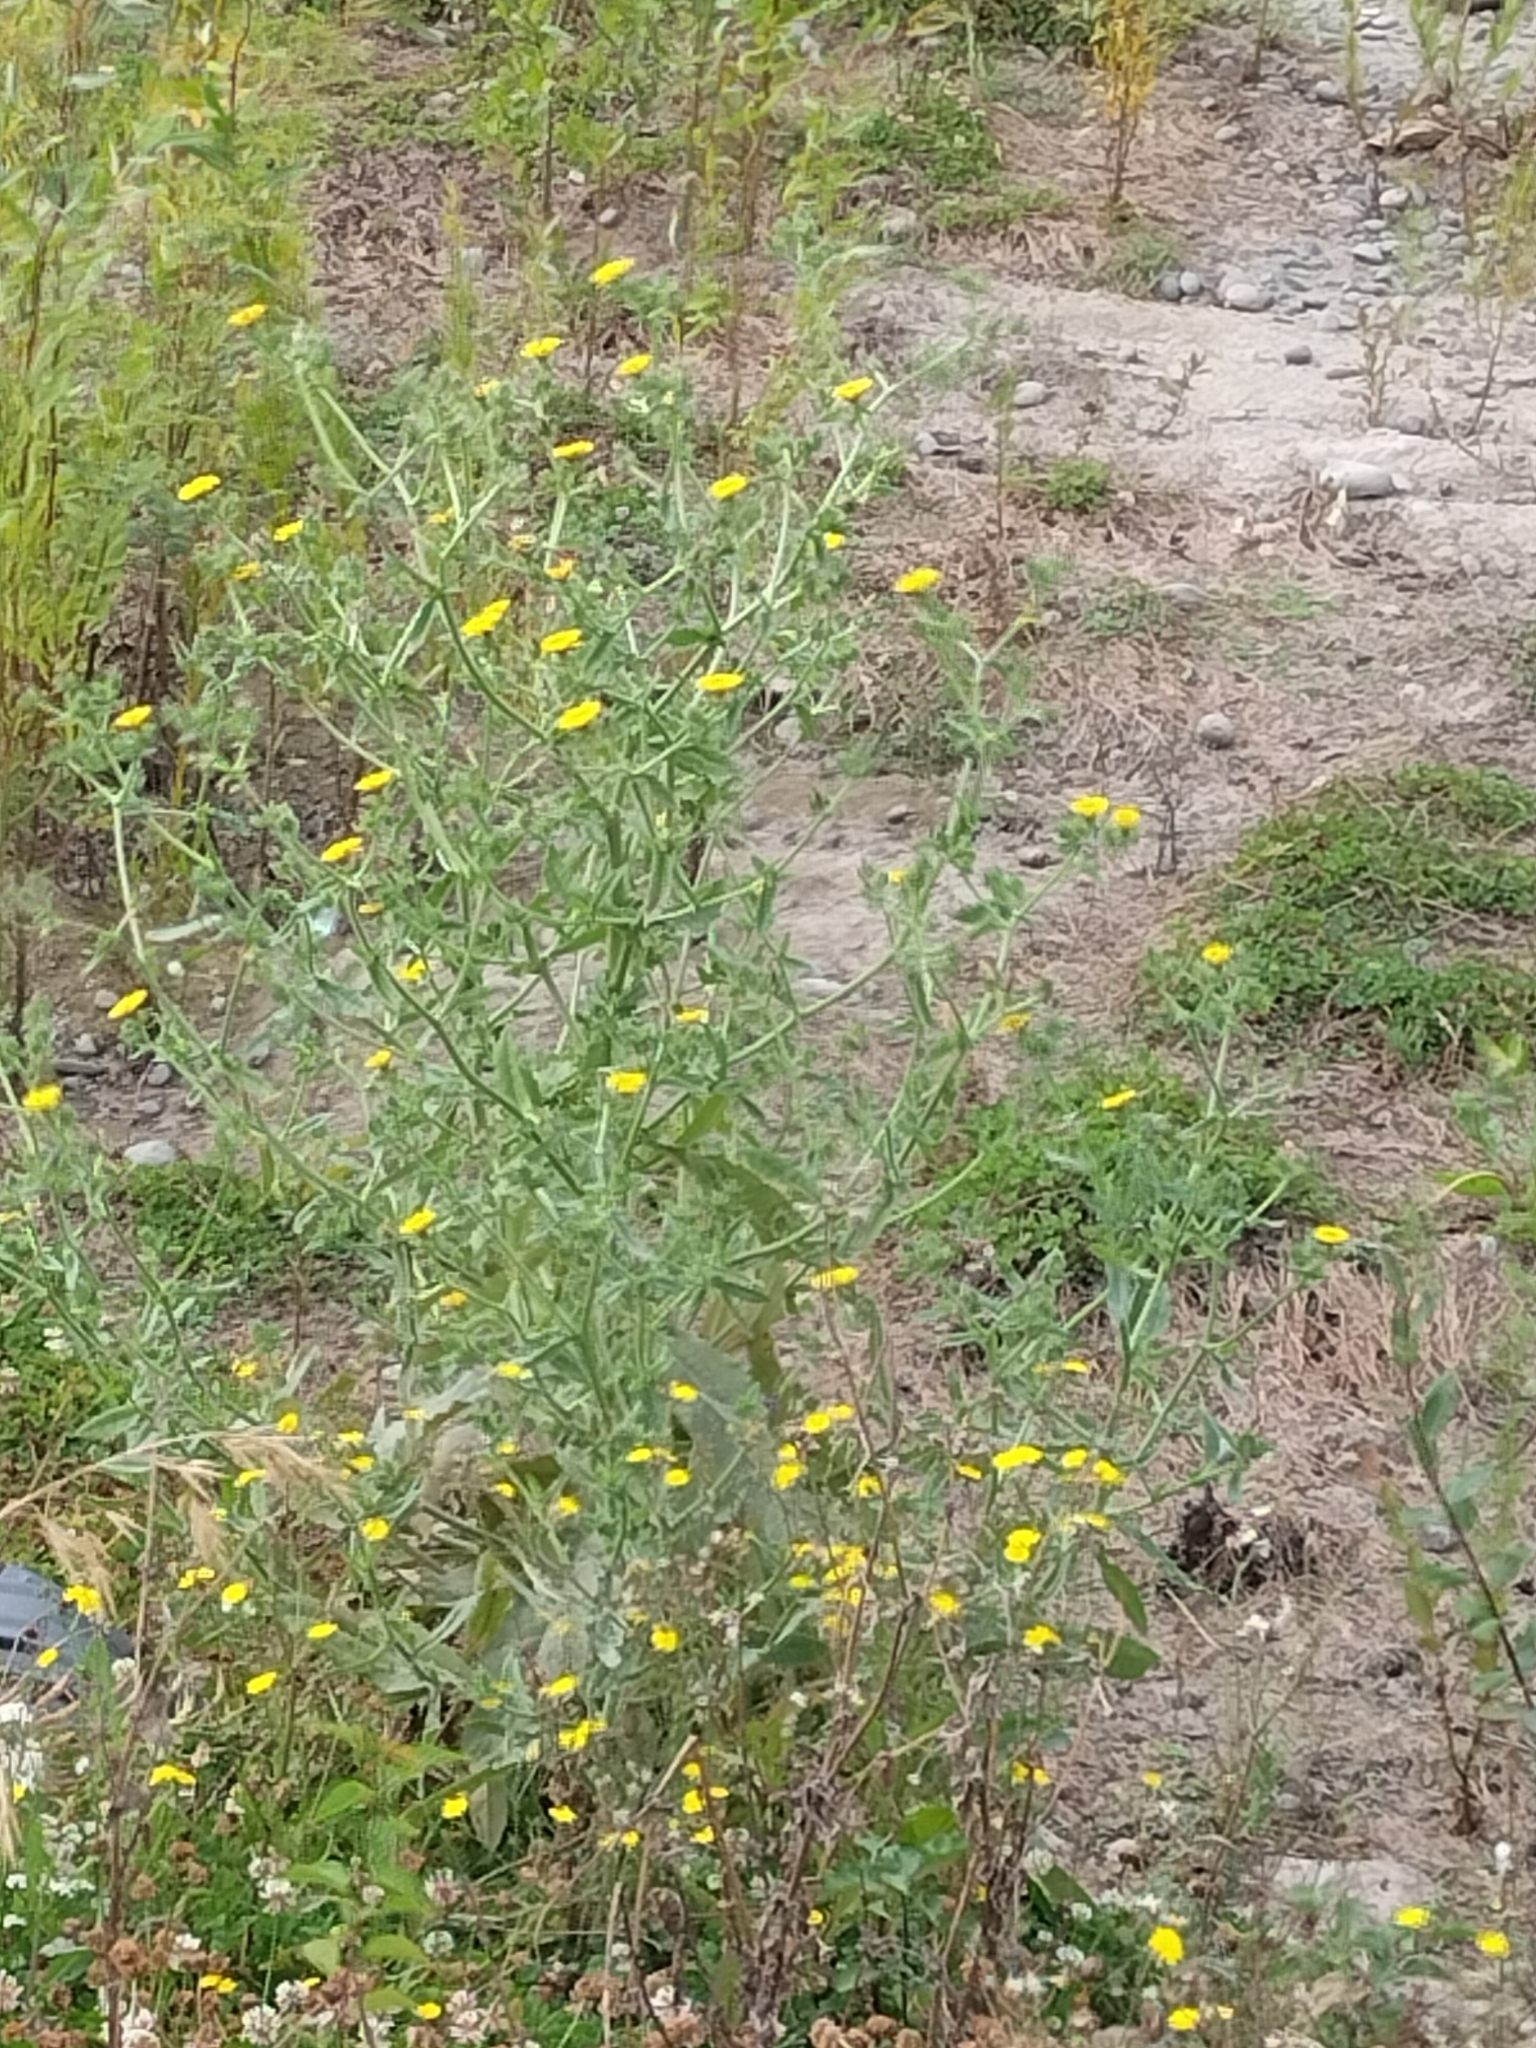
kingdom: Plantae
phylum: Tracheophyta
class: Magnoliopsida
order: Asterales
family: Asteraceae
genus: Helminthotheca
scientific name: Helminthotheca echioides
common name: Ox-tongue
